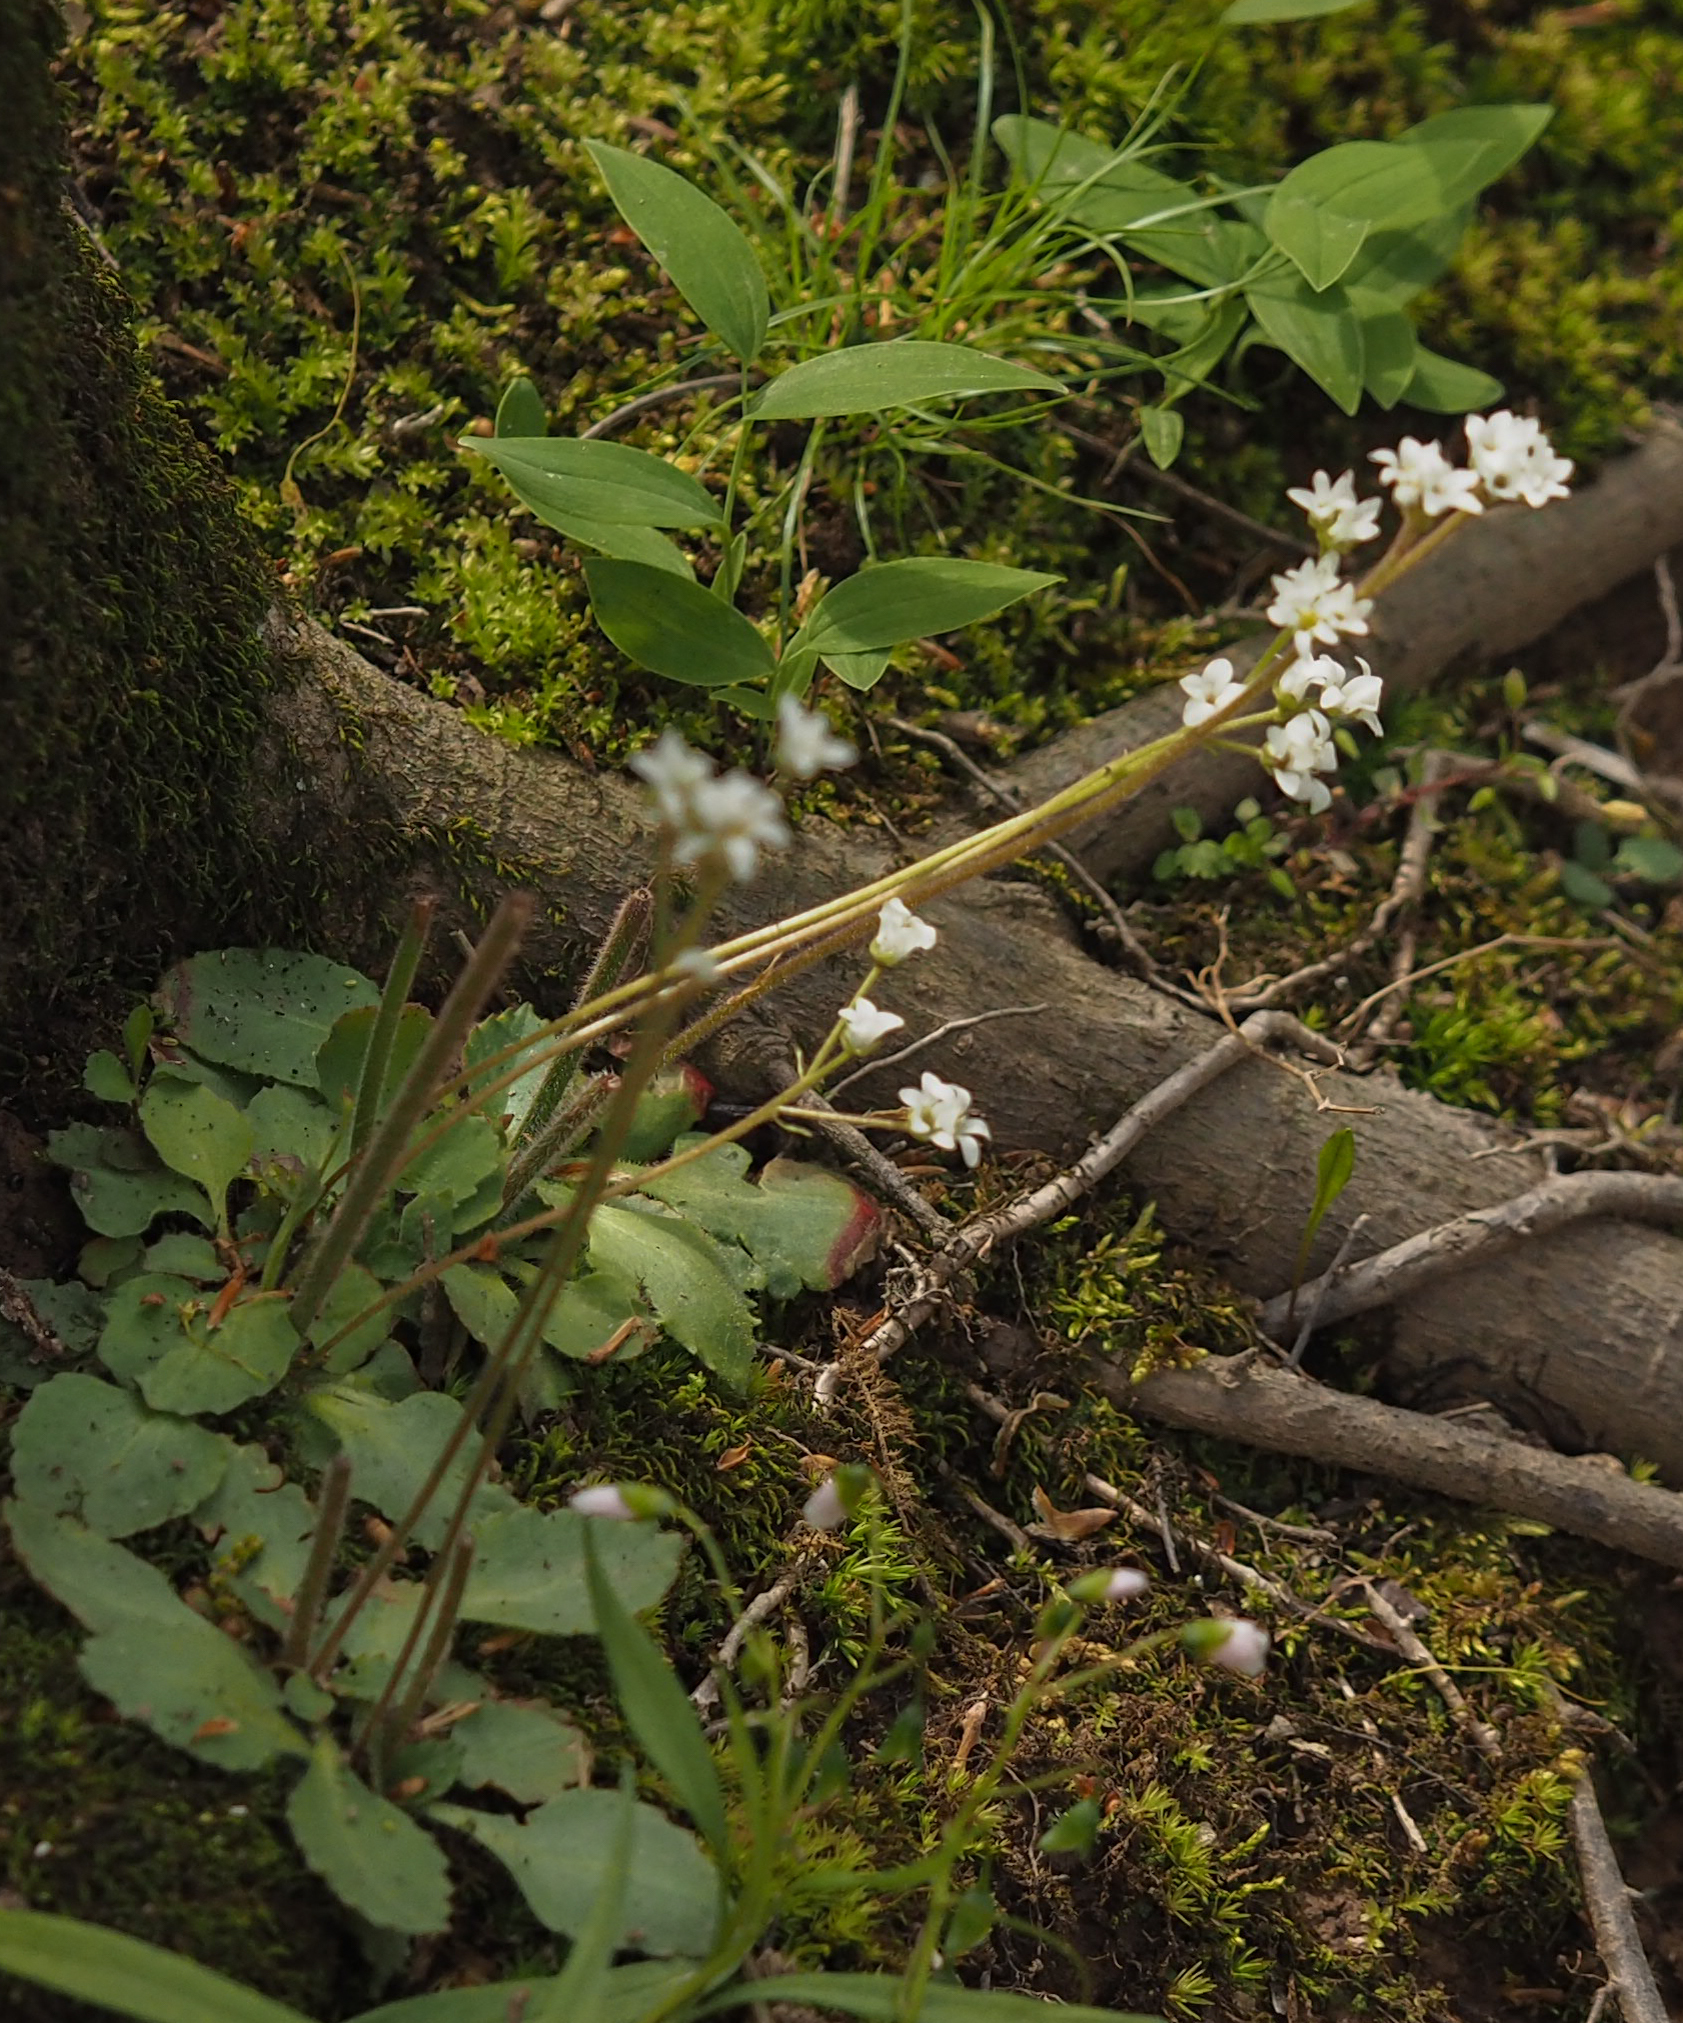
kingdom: Plantae
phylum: Tracheophyta
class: Magnoliopsida
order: Saxifragales
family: Saxifragaceae
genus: Micranthes
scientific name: Micranthes virginiensis
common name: Early saxifrage
